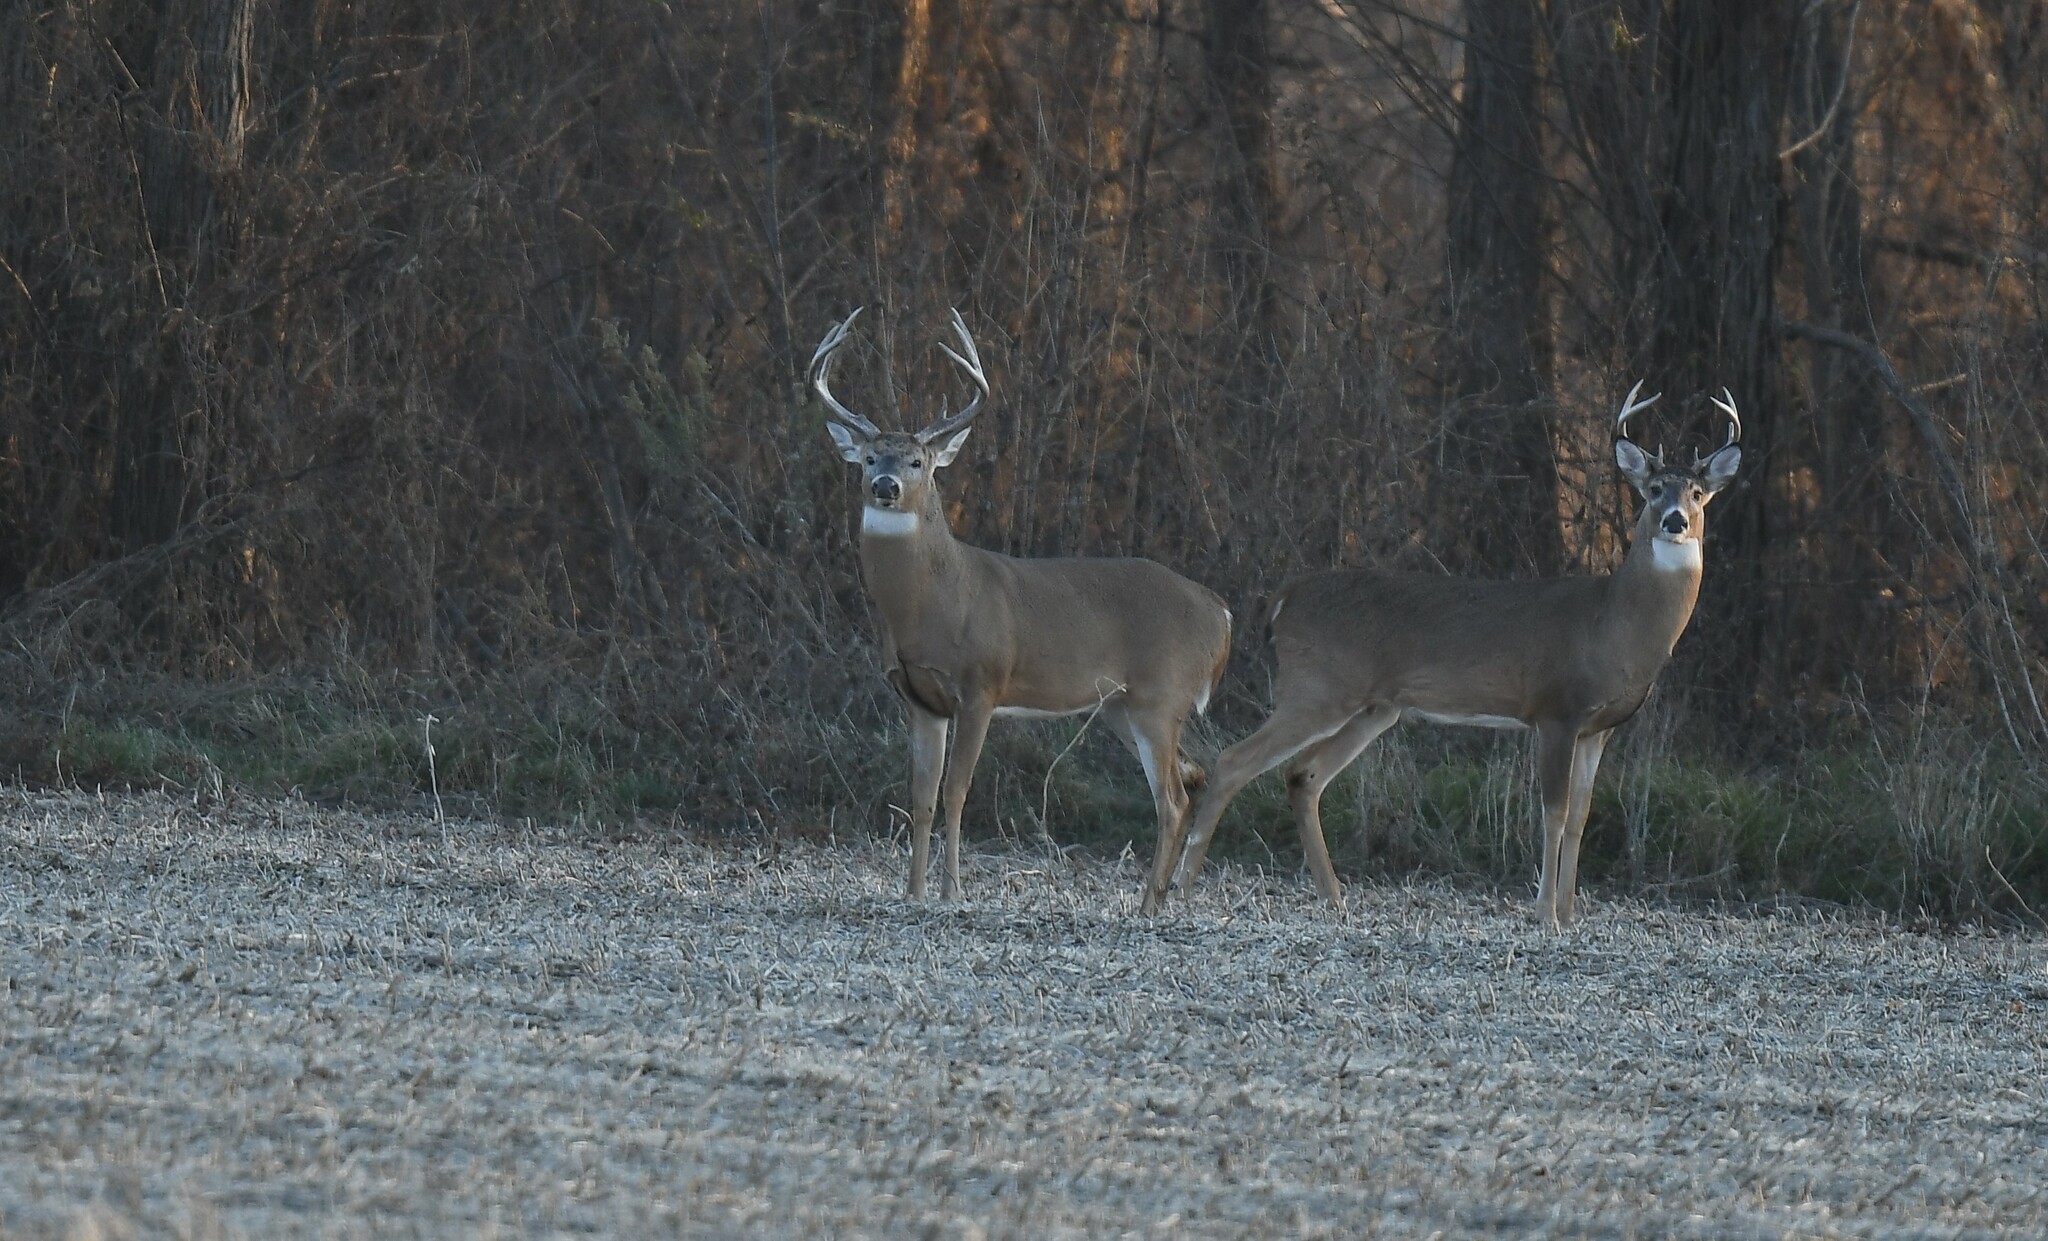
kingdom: Animalia
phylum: Chordata
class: Mammalia
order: Artiodactyla
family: Cervidae
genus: Odocoileus
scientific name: Odocoileus virginianus
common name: White-tailed deer
